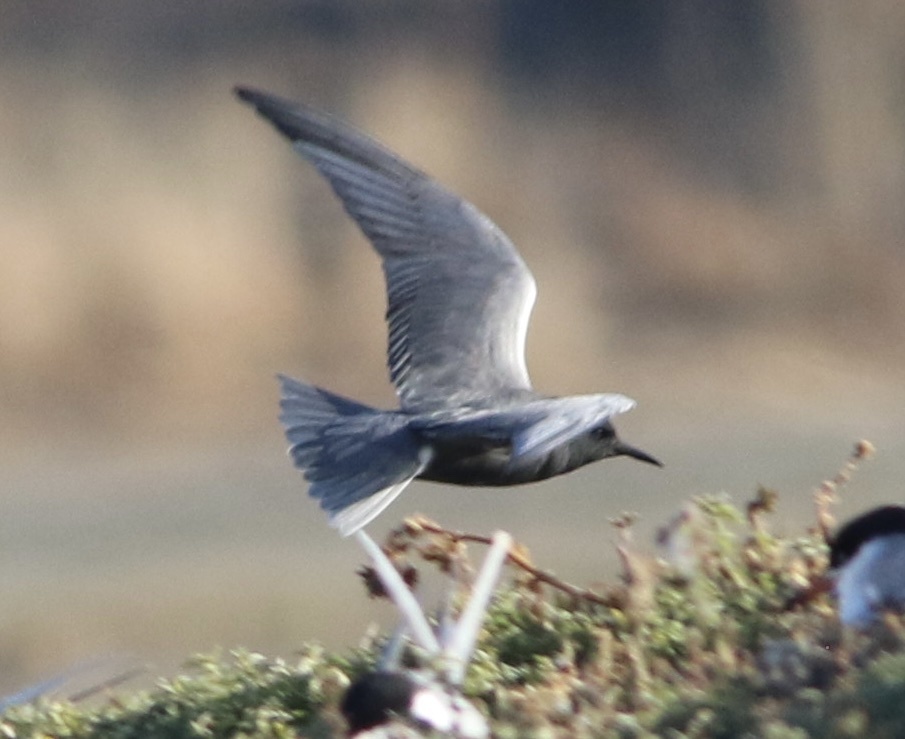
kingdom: Animalia
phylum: Chordata
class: Aves
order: Charadriiformes
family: Laridae
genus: Chlidonias
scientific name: Chlidonias niger
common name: Black tern
